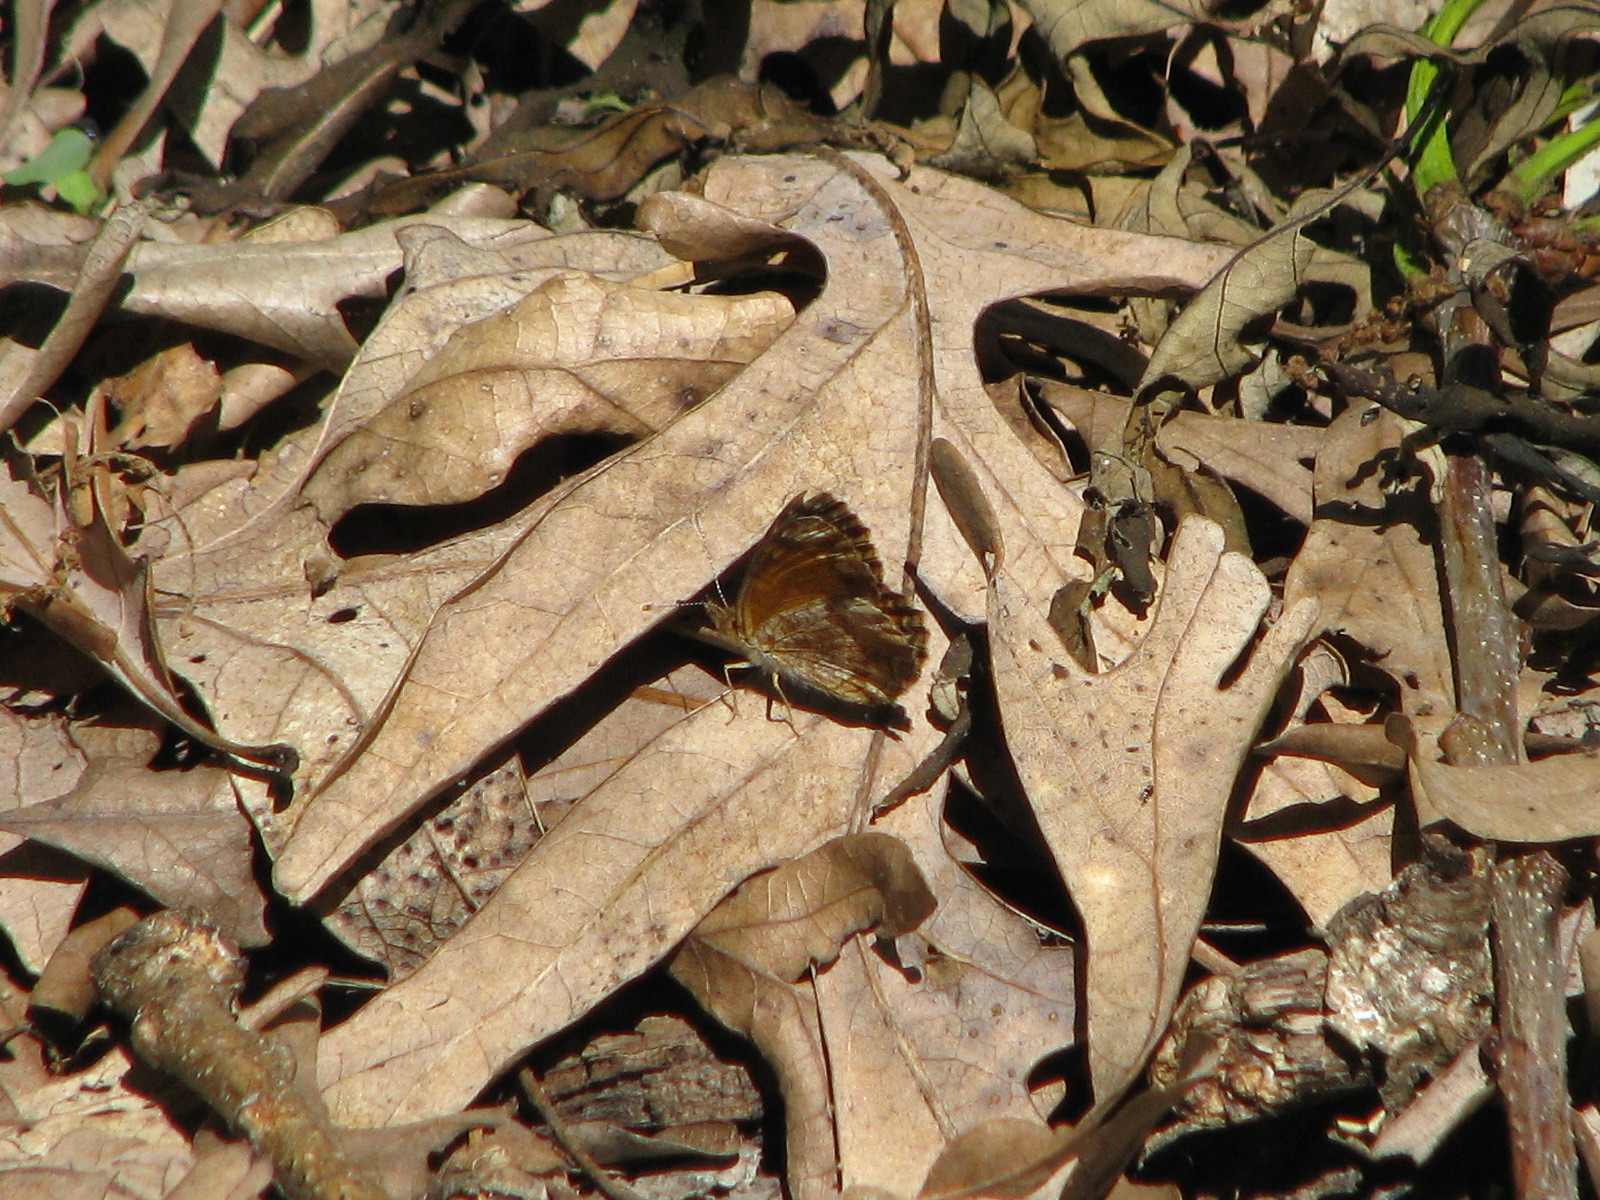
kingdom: Animalia
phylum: Arthropoda
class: Insecta
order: Lepidoptera
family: Nymphalidae
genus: Phyciodes
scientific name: Phyciodes tharos
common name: Pearl crescent
